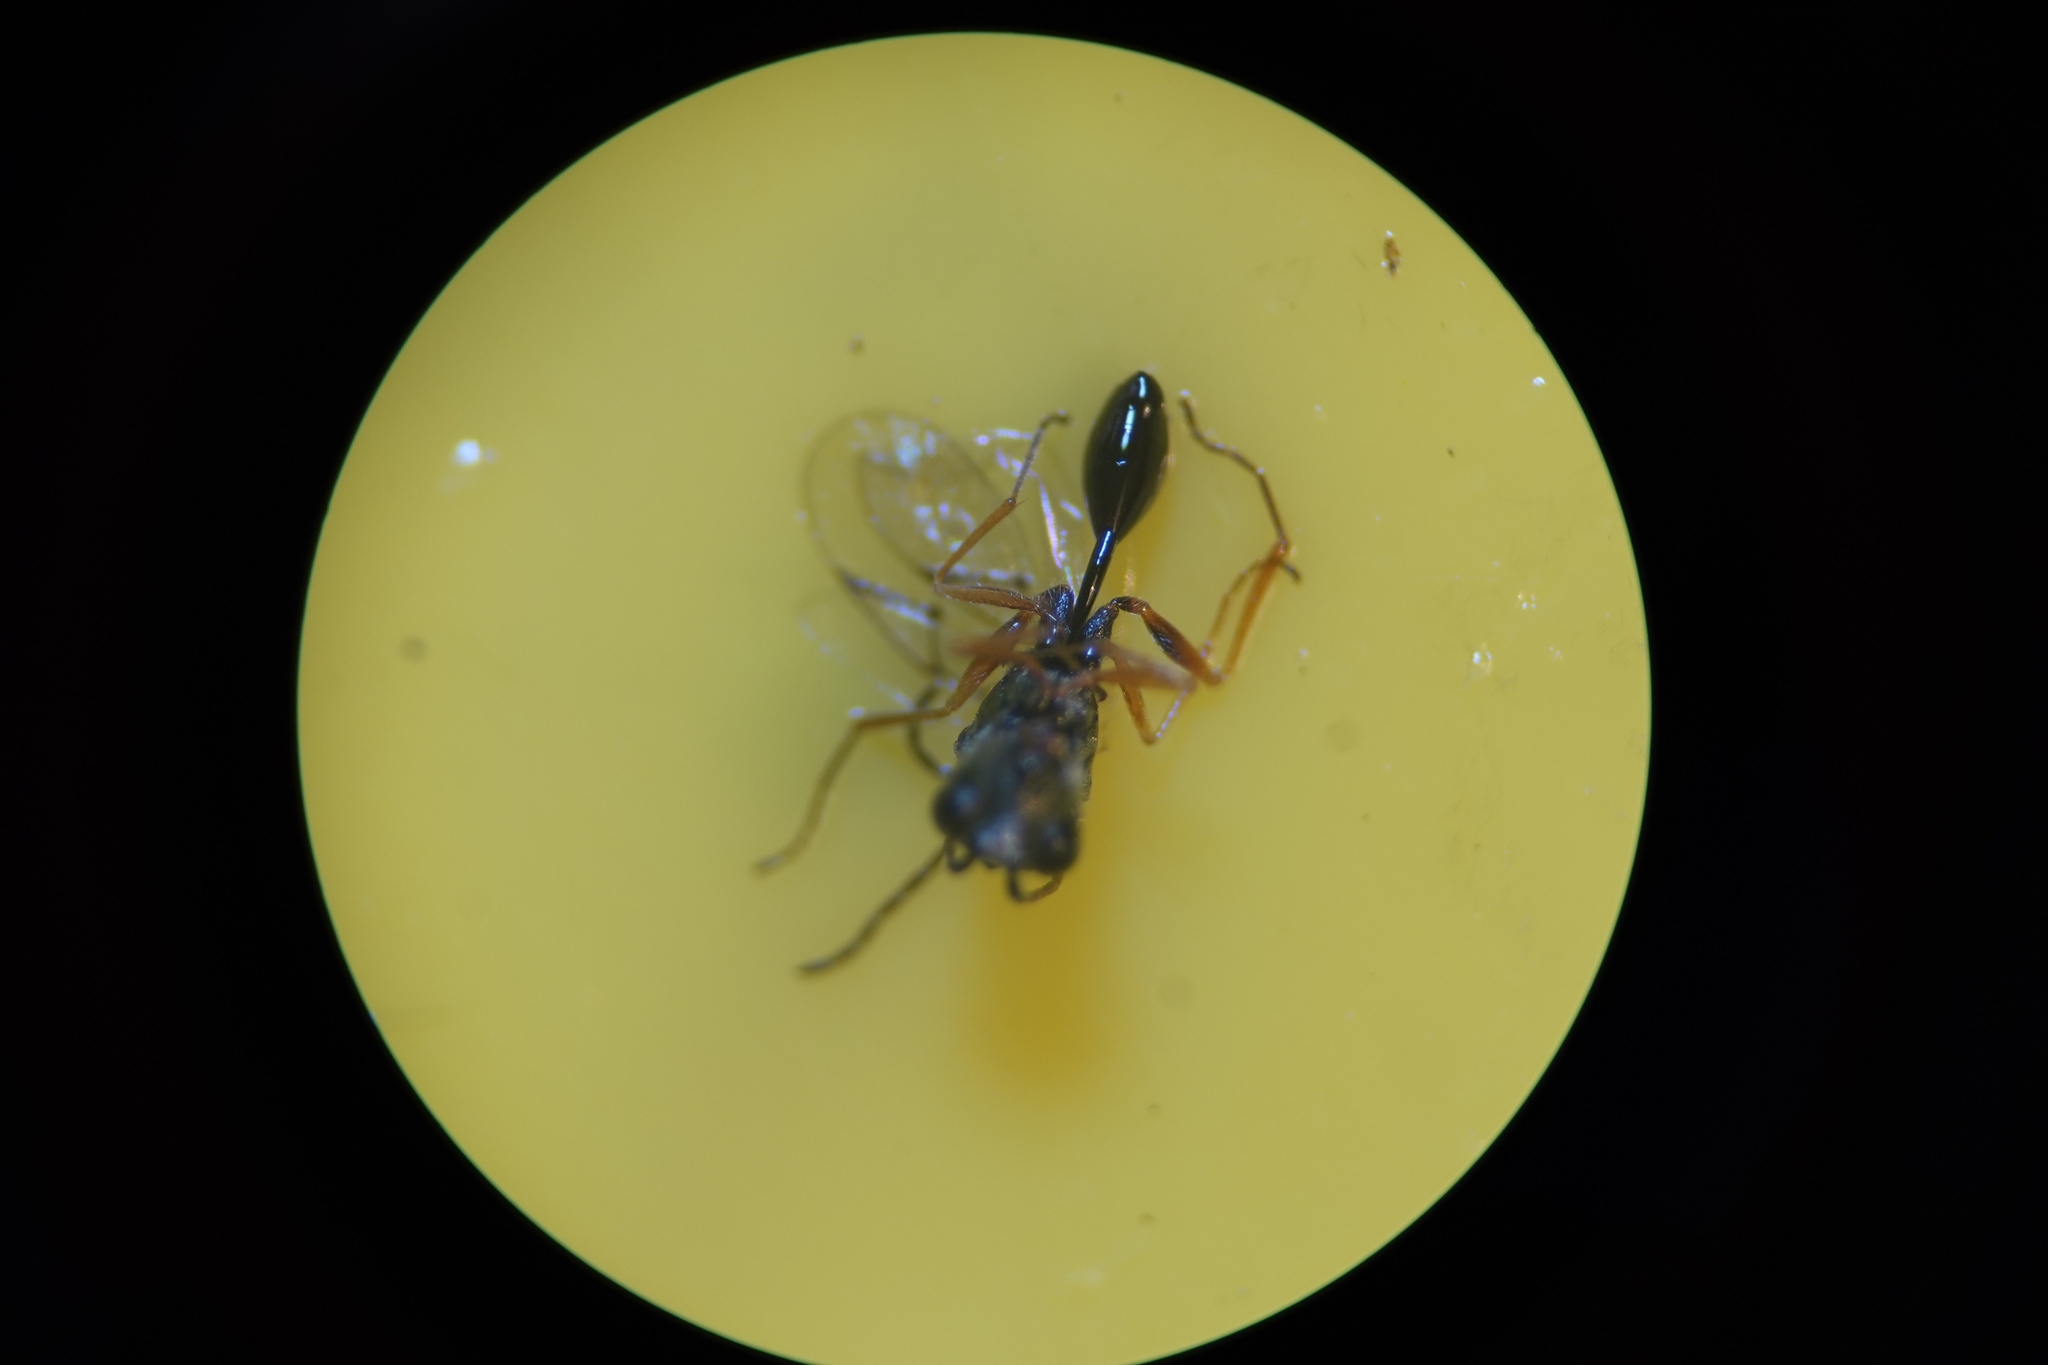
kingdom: Animalia
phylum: Arthropoda
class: Insecta
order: Hymenoptera
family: Figitidae
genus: Anacharis
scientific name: Anacharis zealandica
